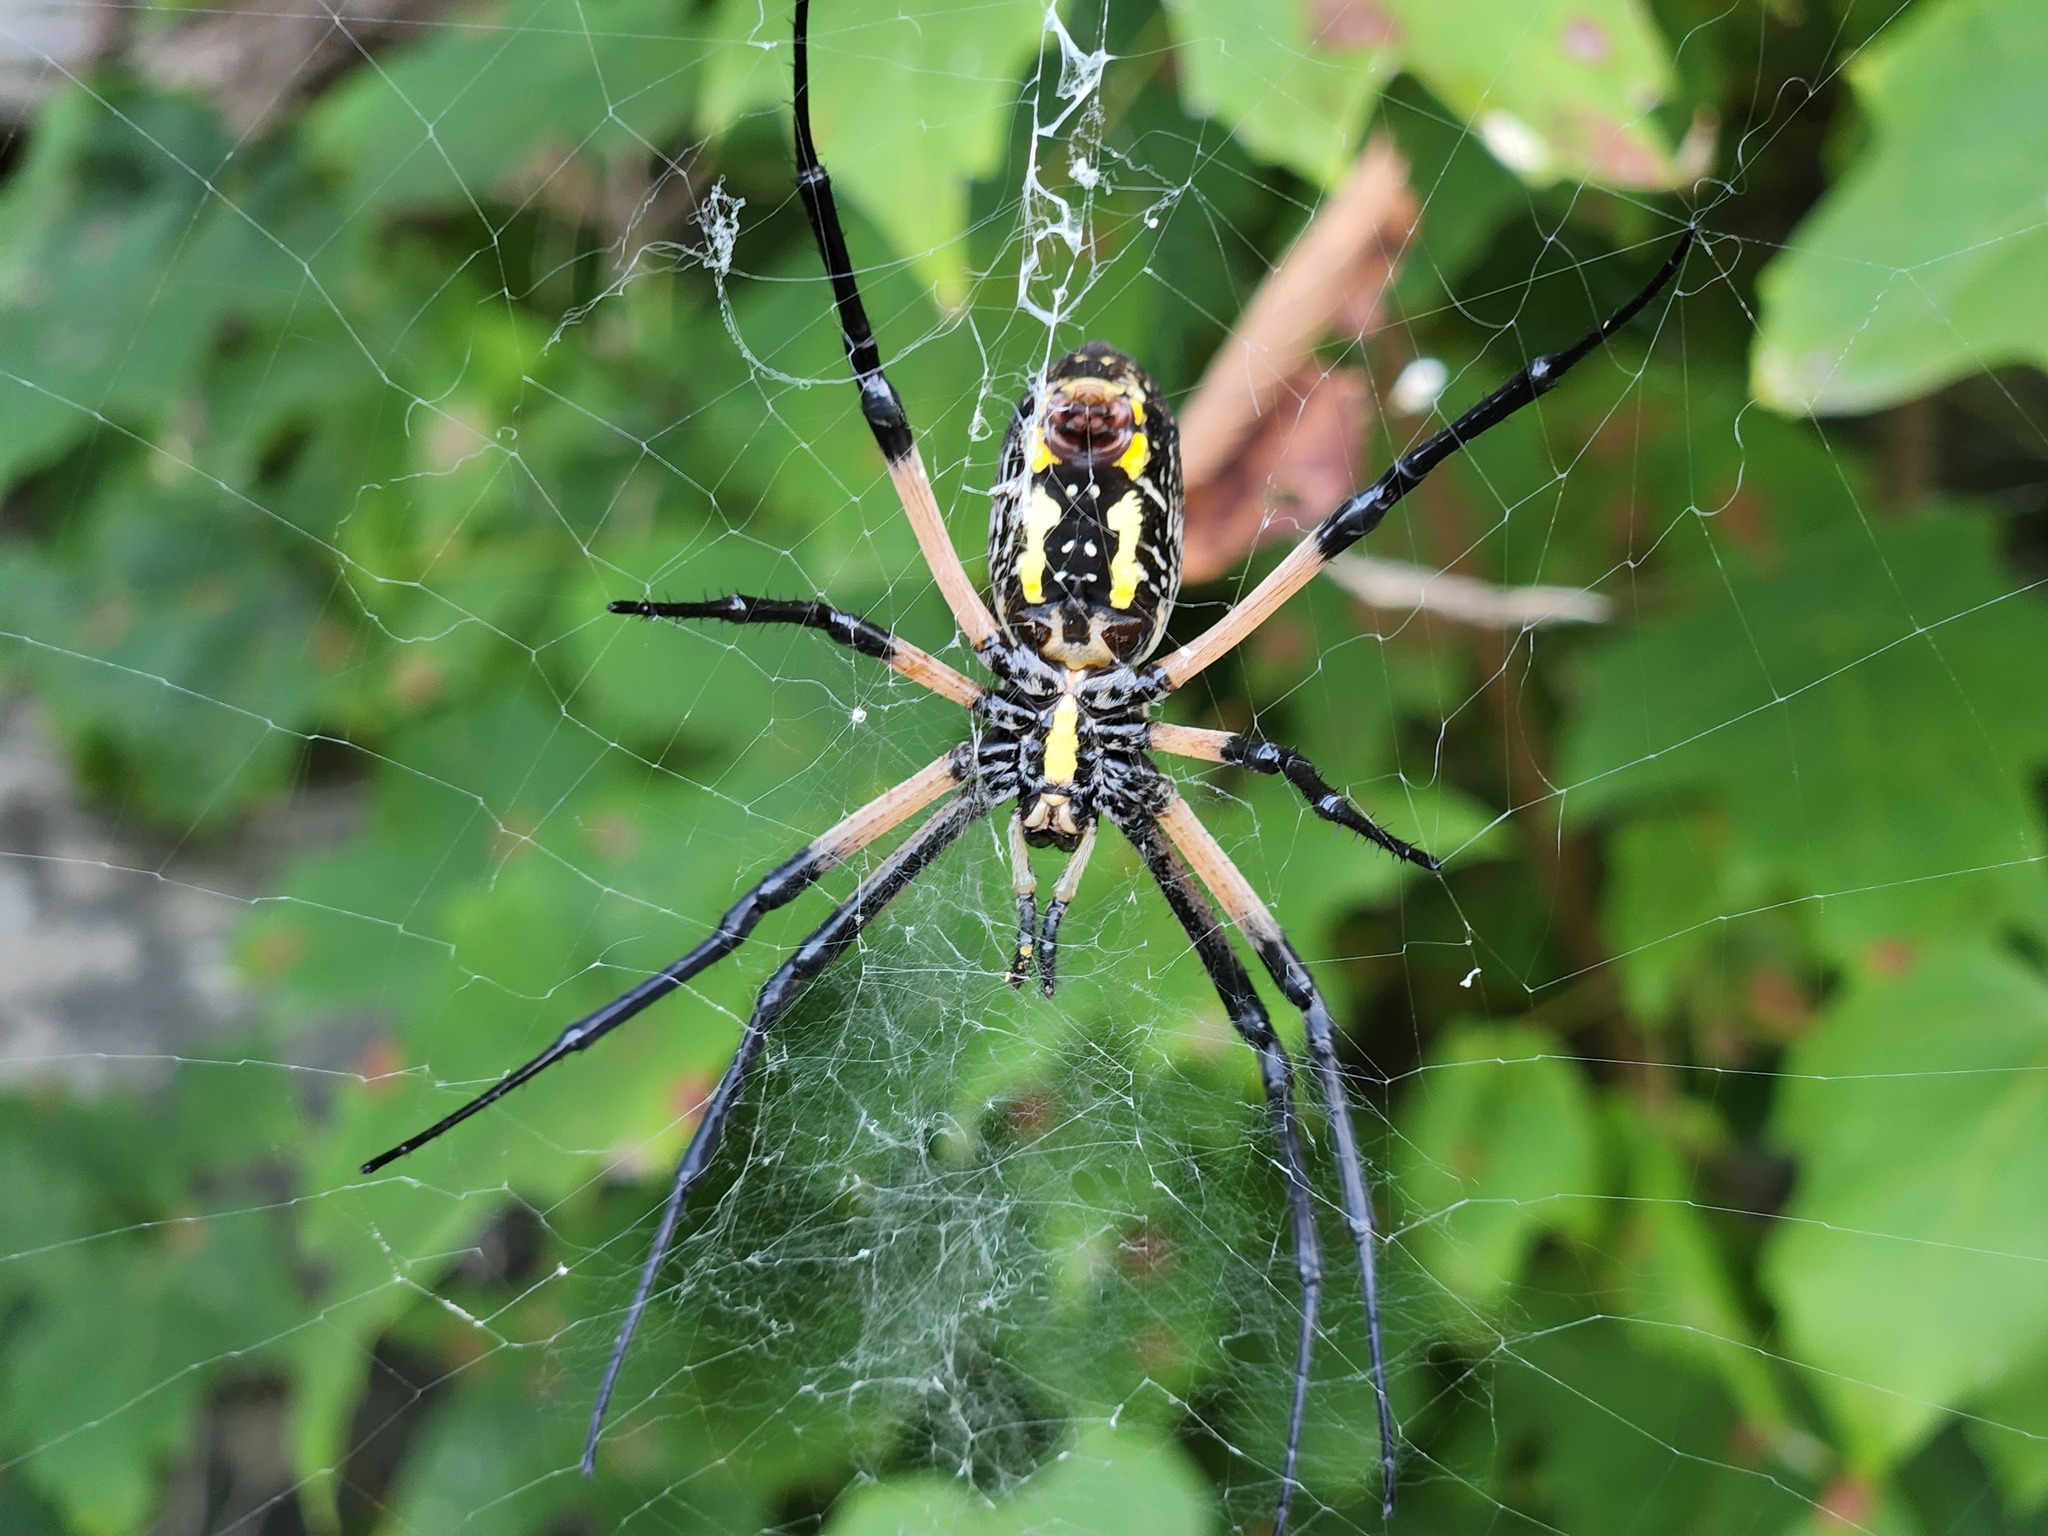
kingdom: Animalia
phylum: Arthropoda
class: Arachnida
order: Araneae
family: Araneidae
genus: Argiope
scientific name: Argiope aurantia
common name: Orb weavers
